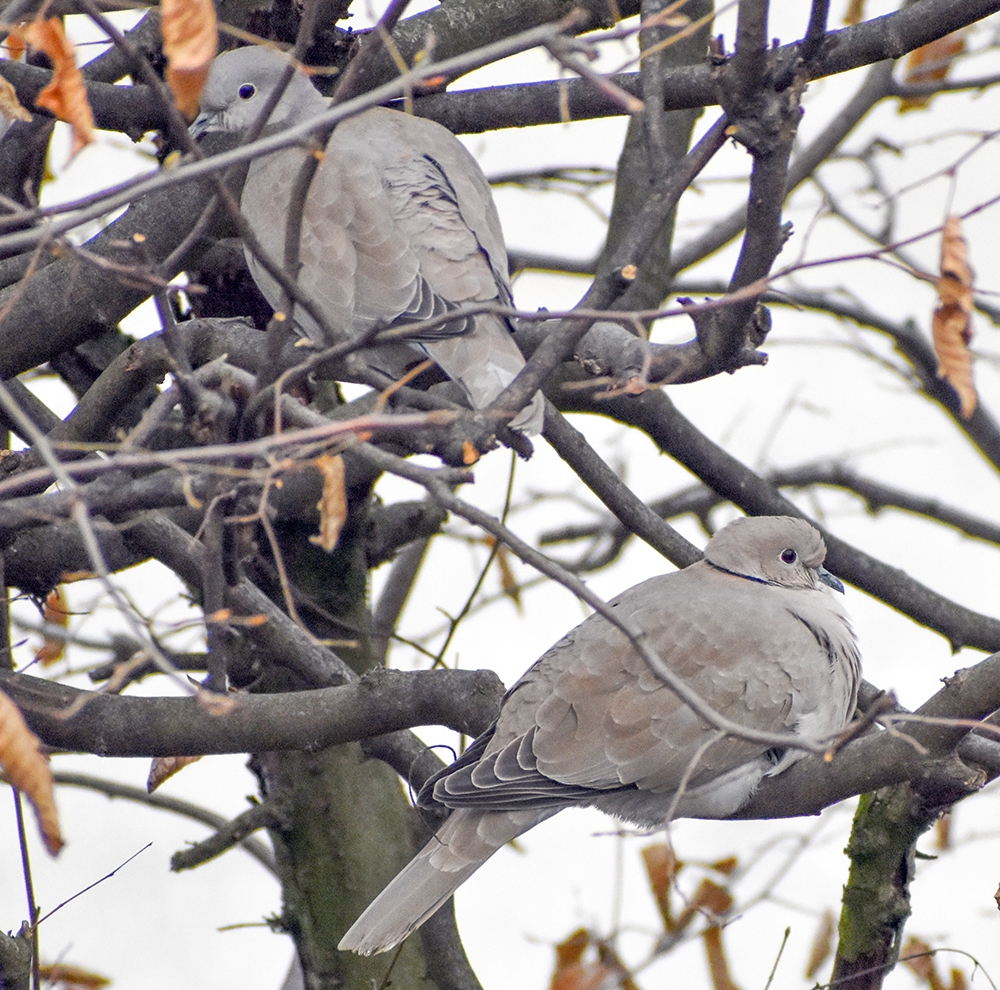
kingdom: Animalia
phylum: Chordata
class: Aves
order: Columbiformes
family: Columbidae
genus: Streptopelia
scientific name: Streptopelia decaocto
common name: Eurasian collared dove
